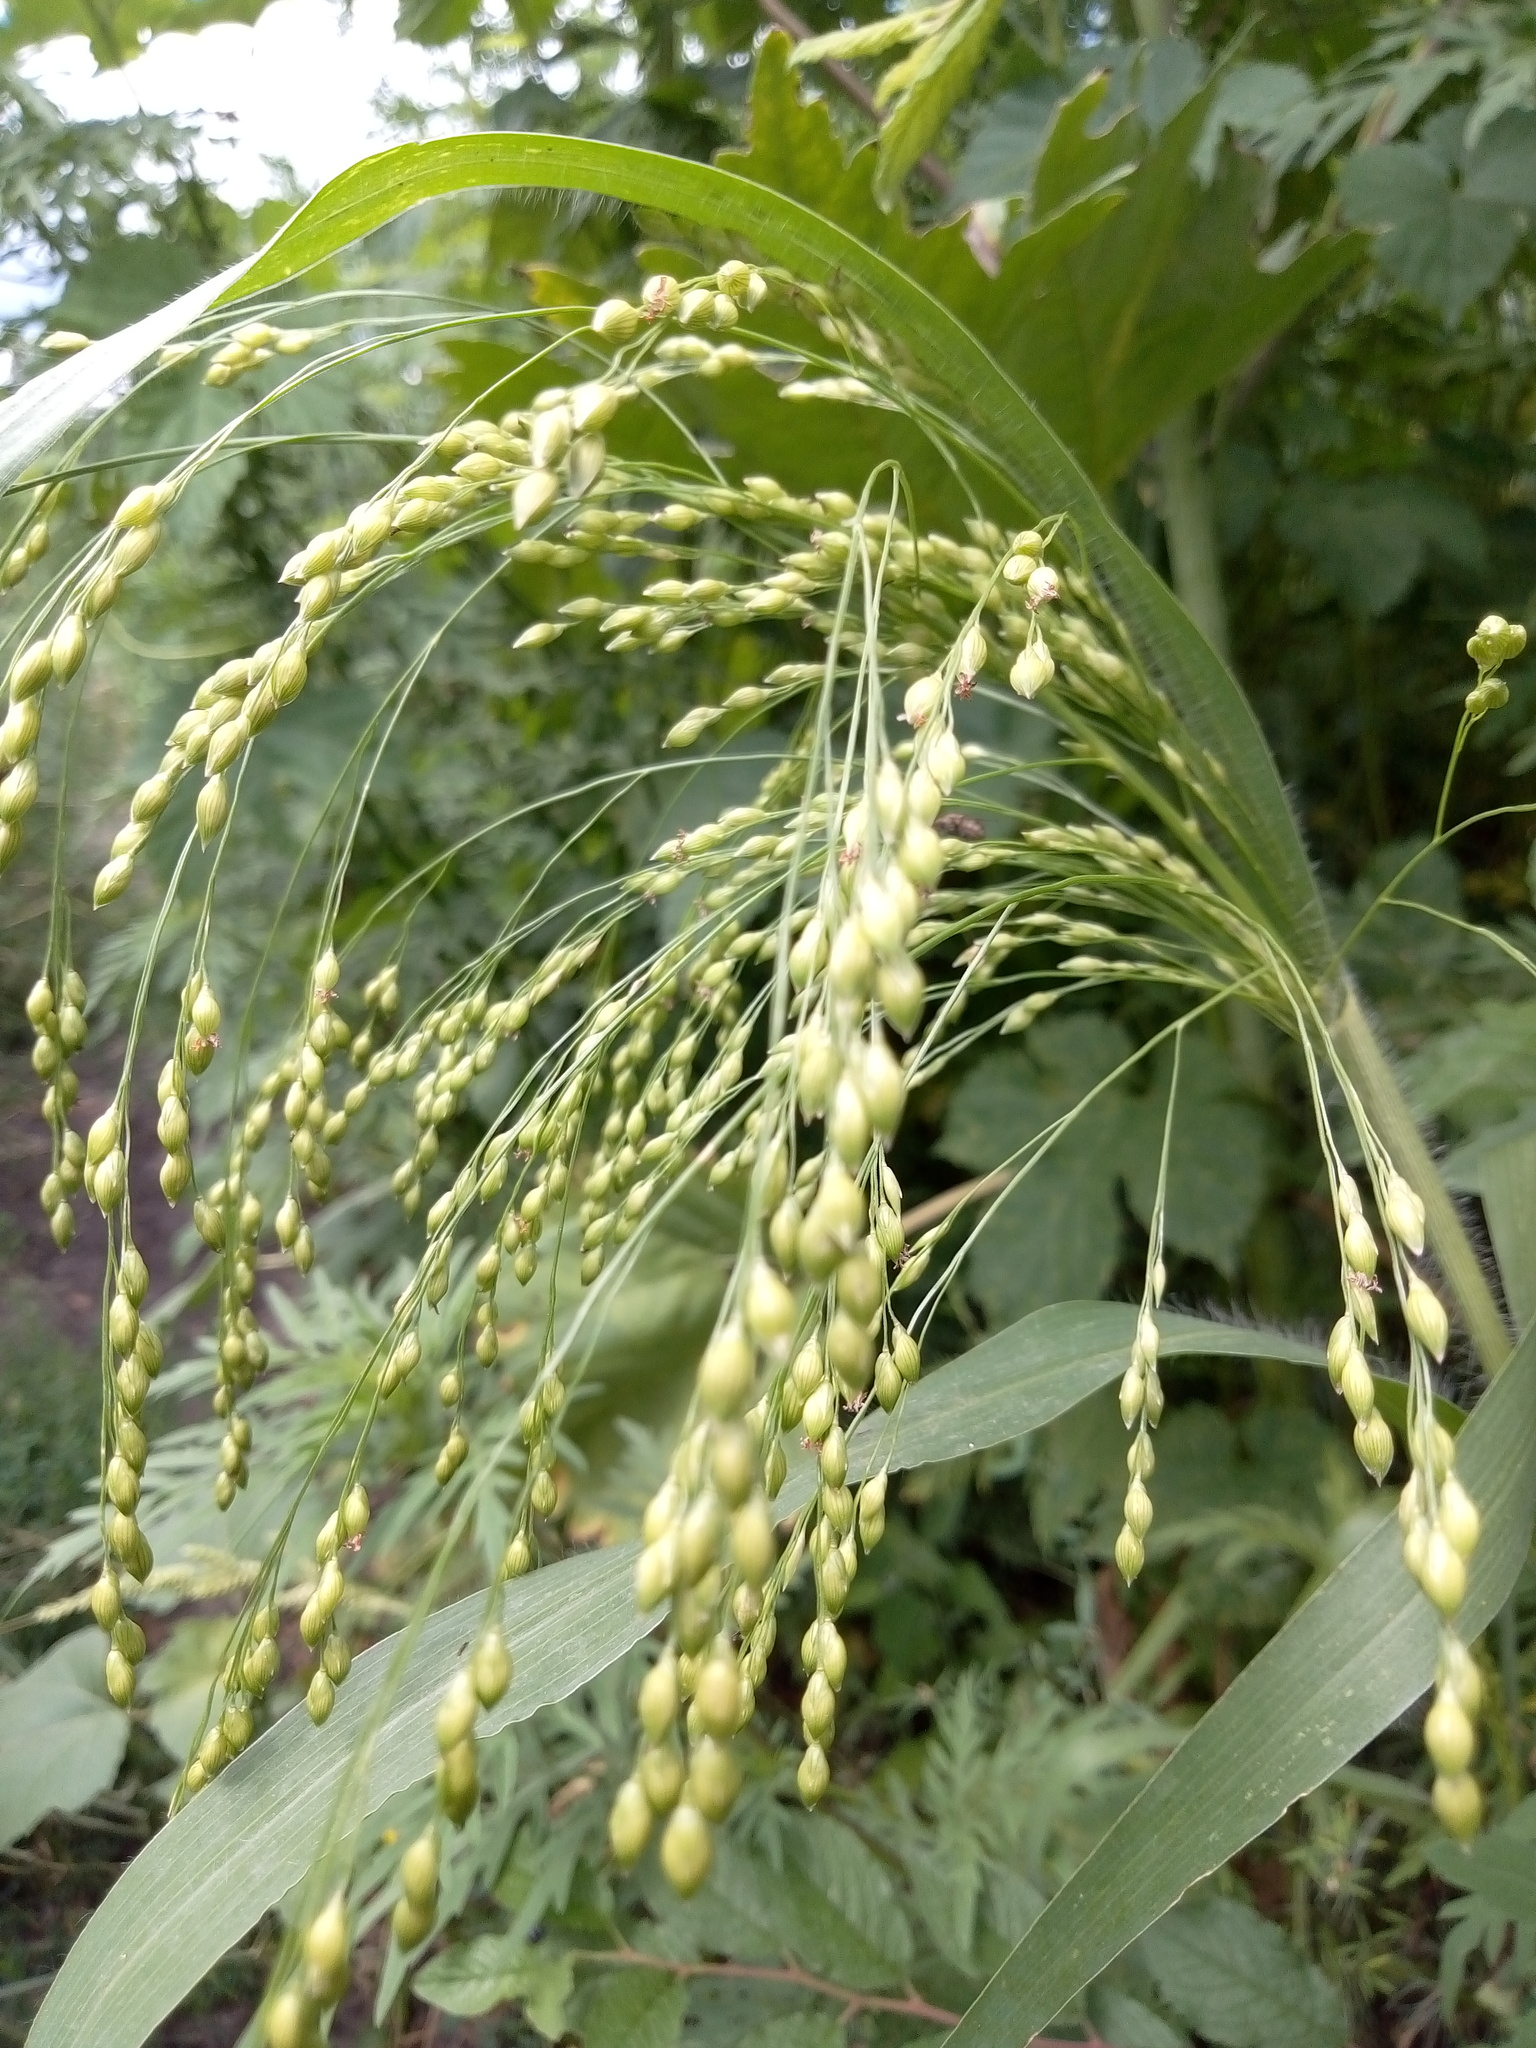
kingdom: Plantae
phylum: Tracheophyta
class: Liliopsida
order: Poales
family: Poaceae
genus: Panicum
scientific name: Panicum miliaceum
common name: Common millet
